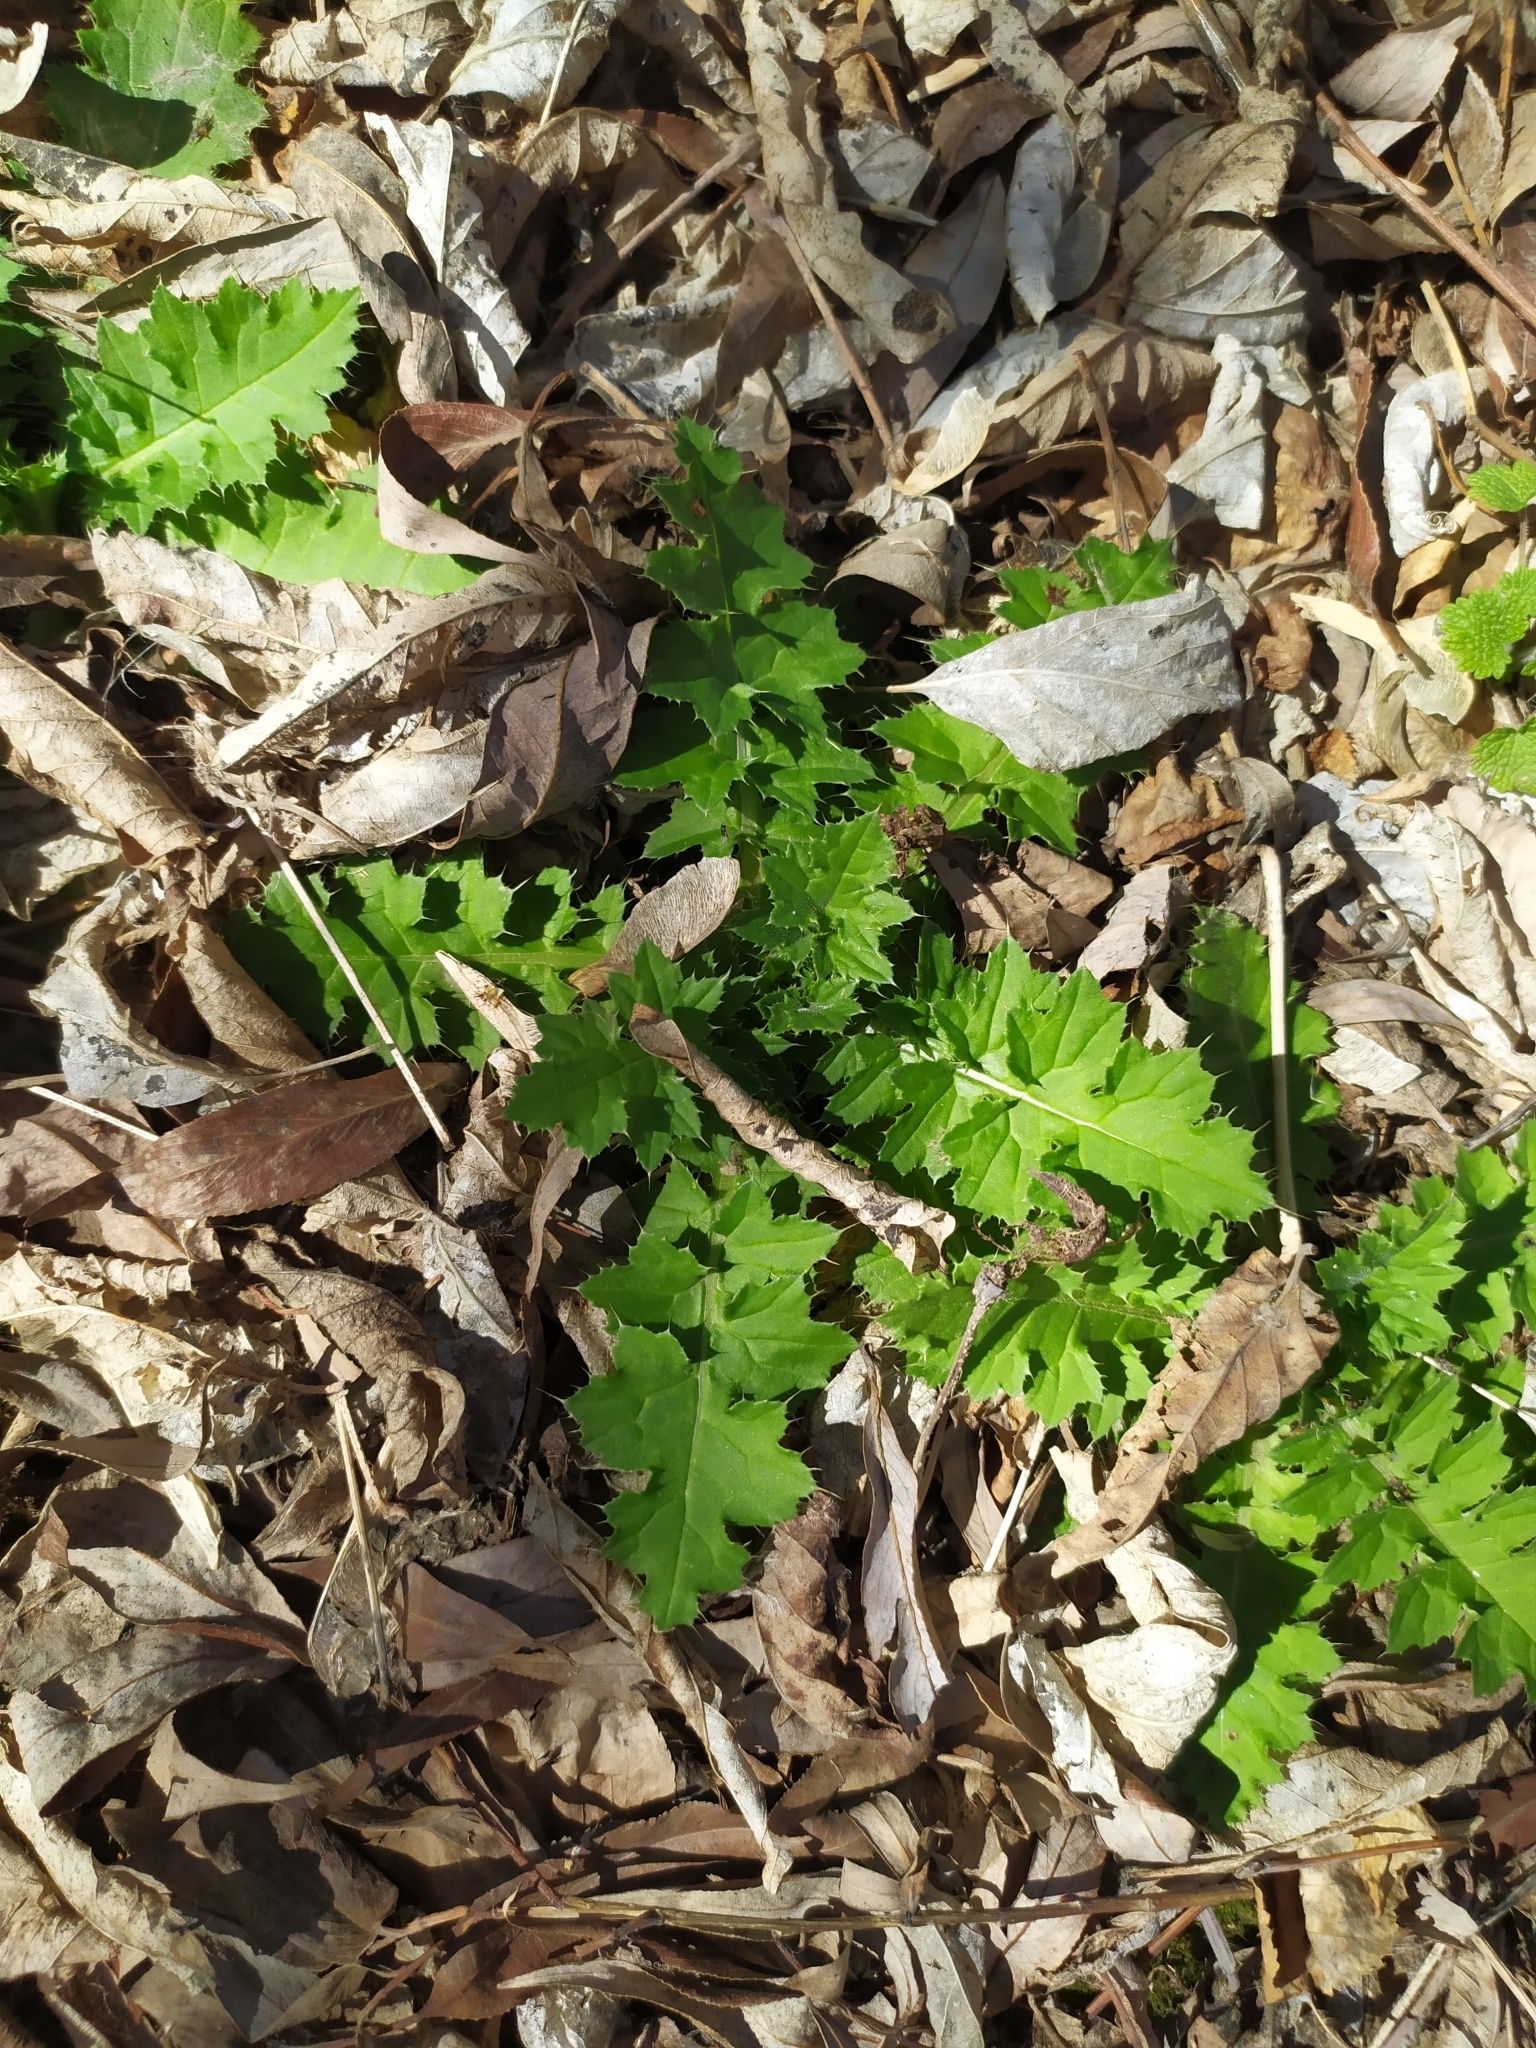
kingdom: Plantae
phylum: Tracheophyta
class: Magnoliopsida
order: Asterales
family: Asteraceae
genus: Carduus
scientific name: Carduus crispus
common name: Welted thistle
